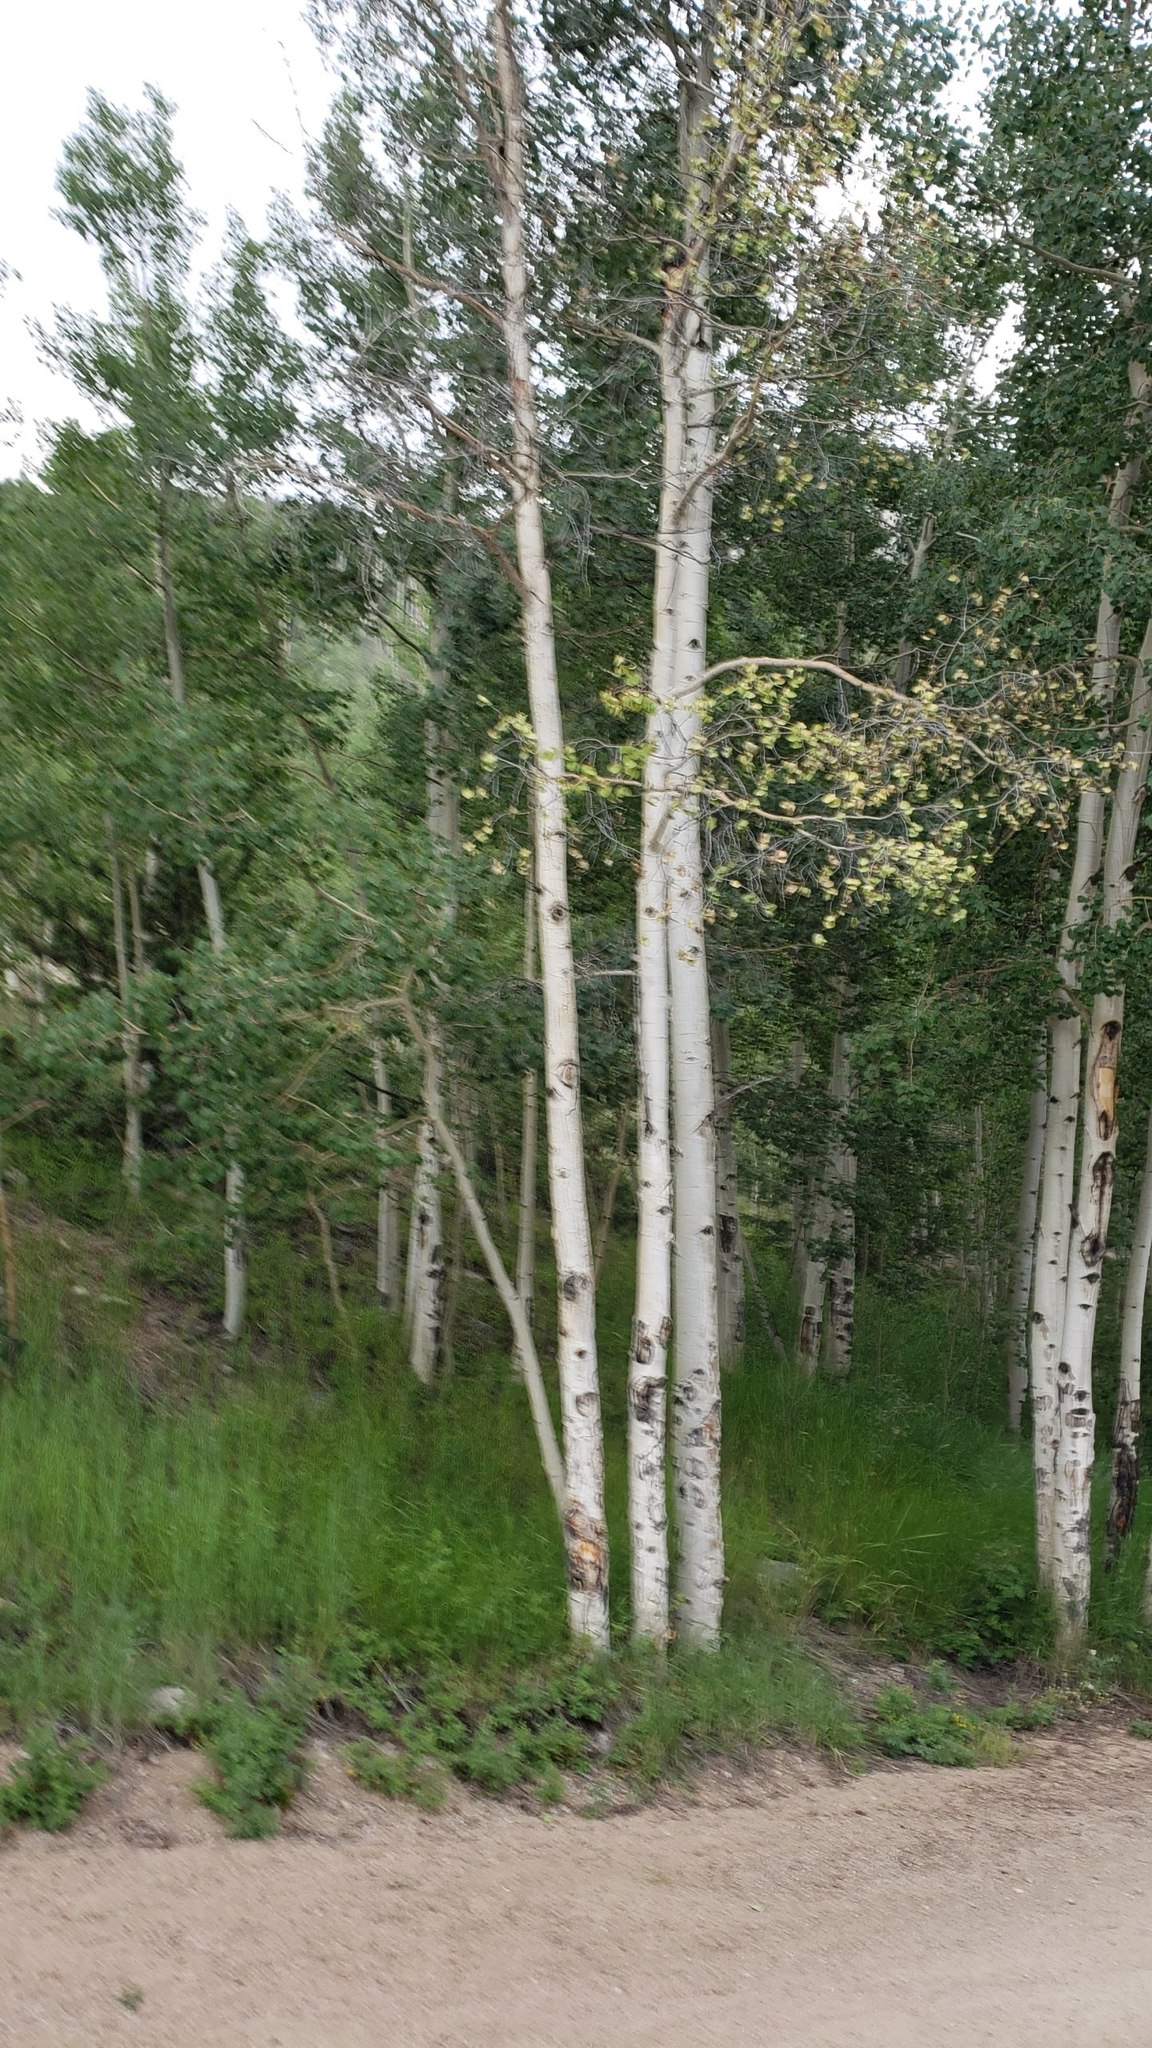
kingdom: Plantae
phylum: Tracheophyta
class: Magnoliopsida
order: Malpighiales
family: Salicaceae
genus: Populus
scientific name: Populus tremuloides
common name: Quaking aspen
